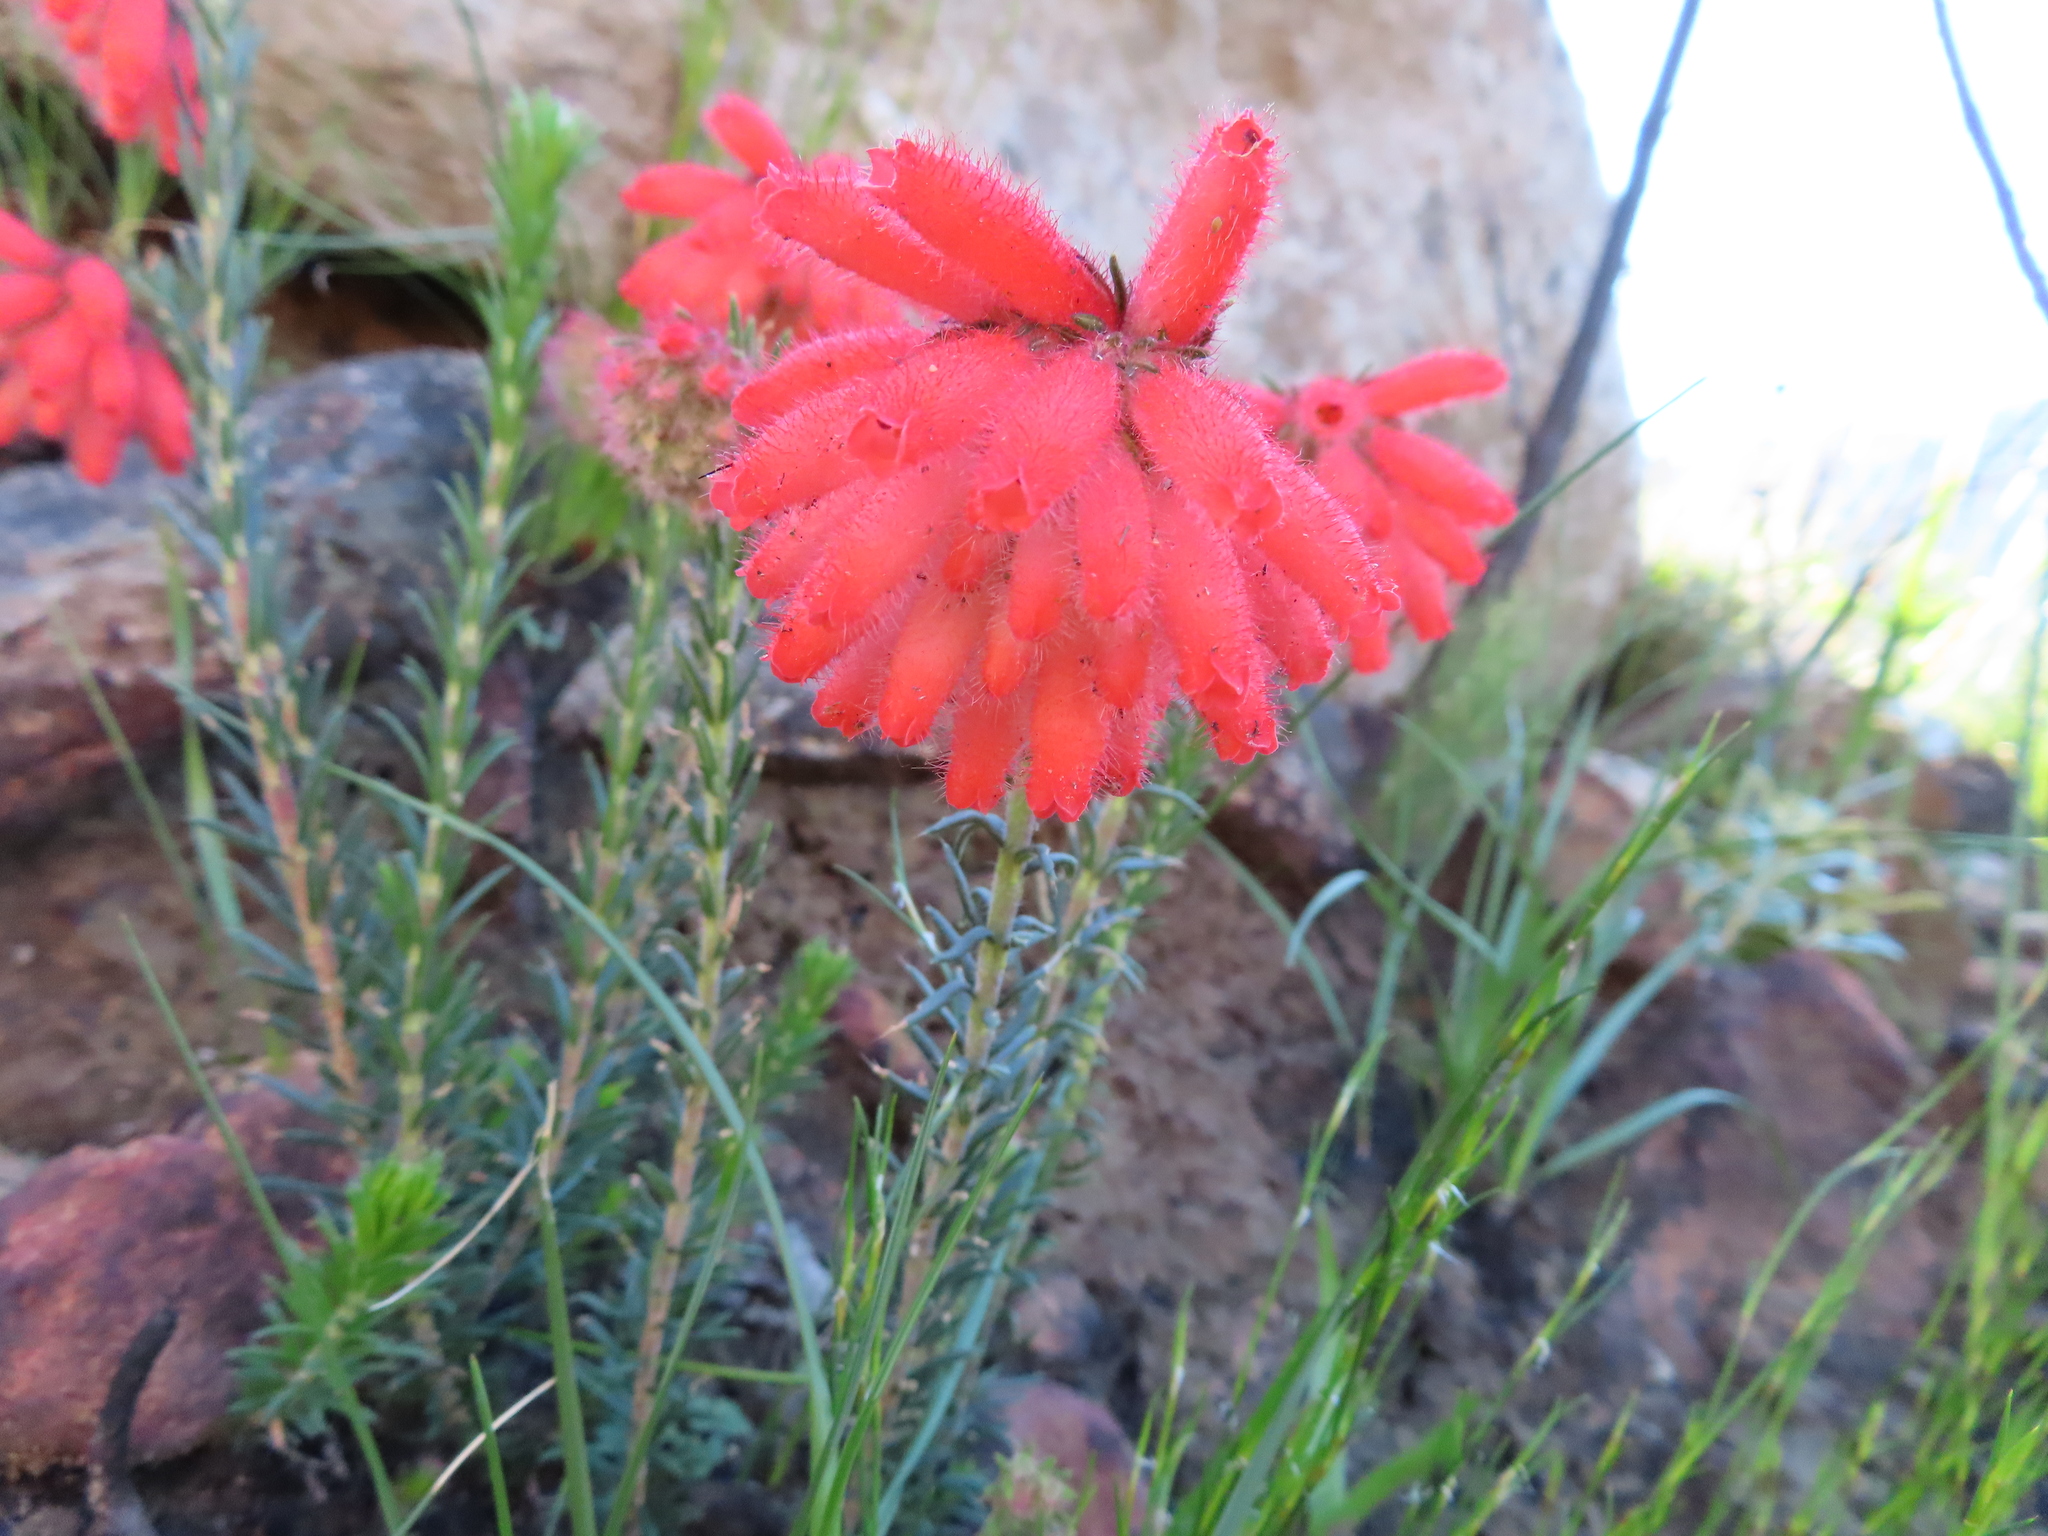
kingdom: Plantae
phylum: Tracheophyta
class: Magnoliopsida
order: Ericales
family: Ericaceae
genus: Erica
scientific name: Erica cerinthoides
